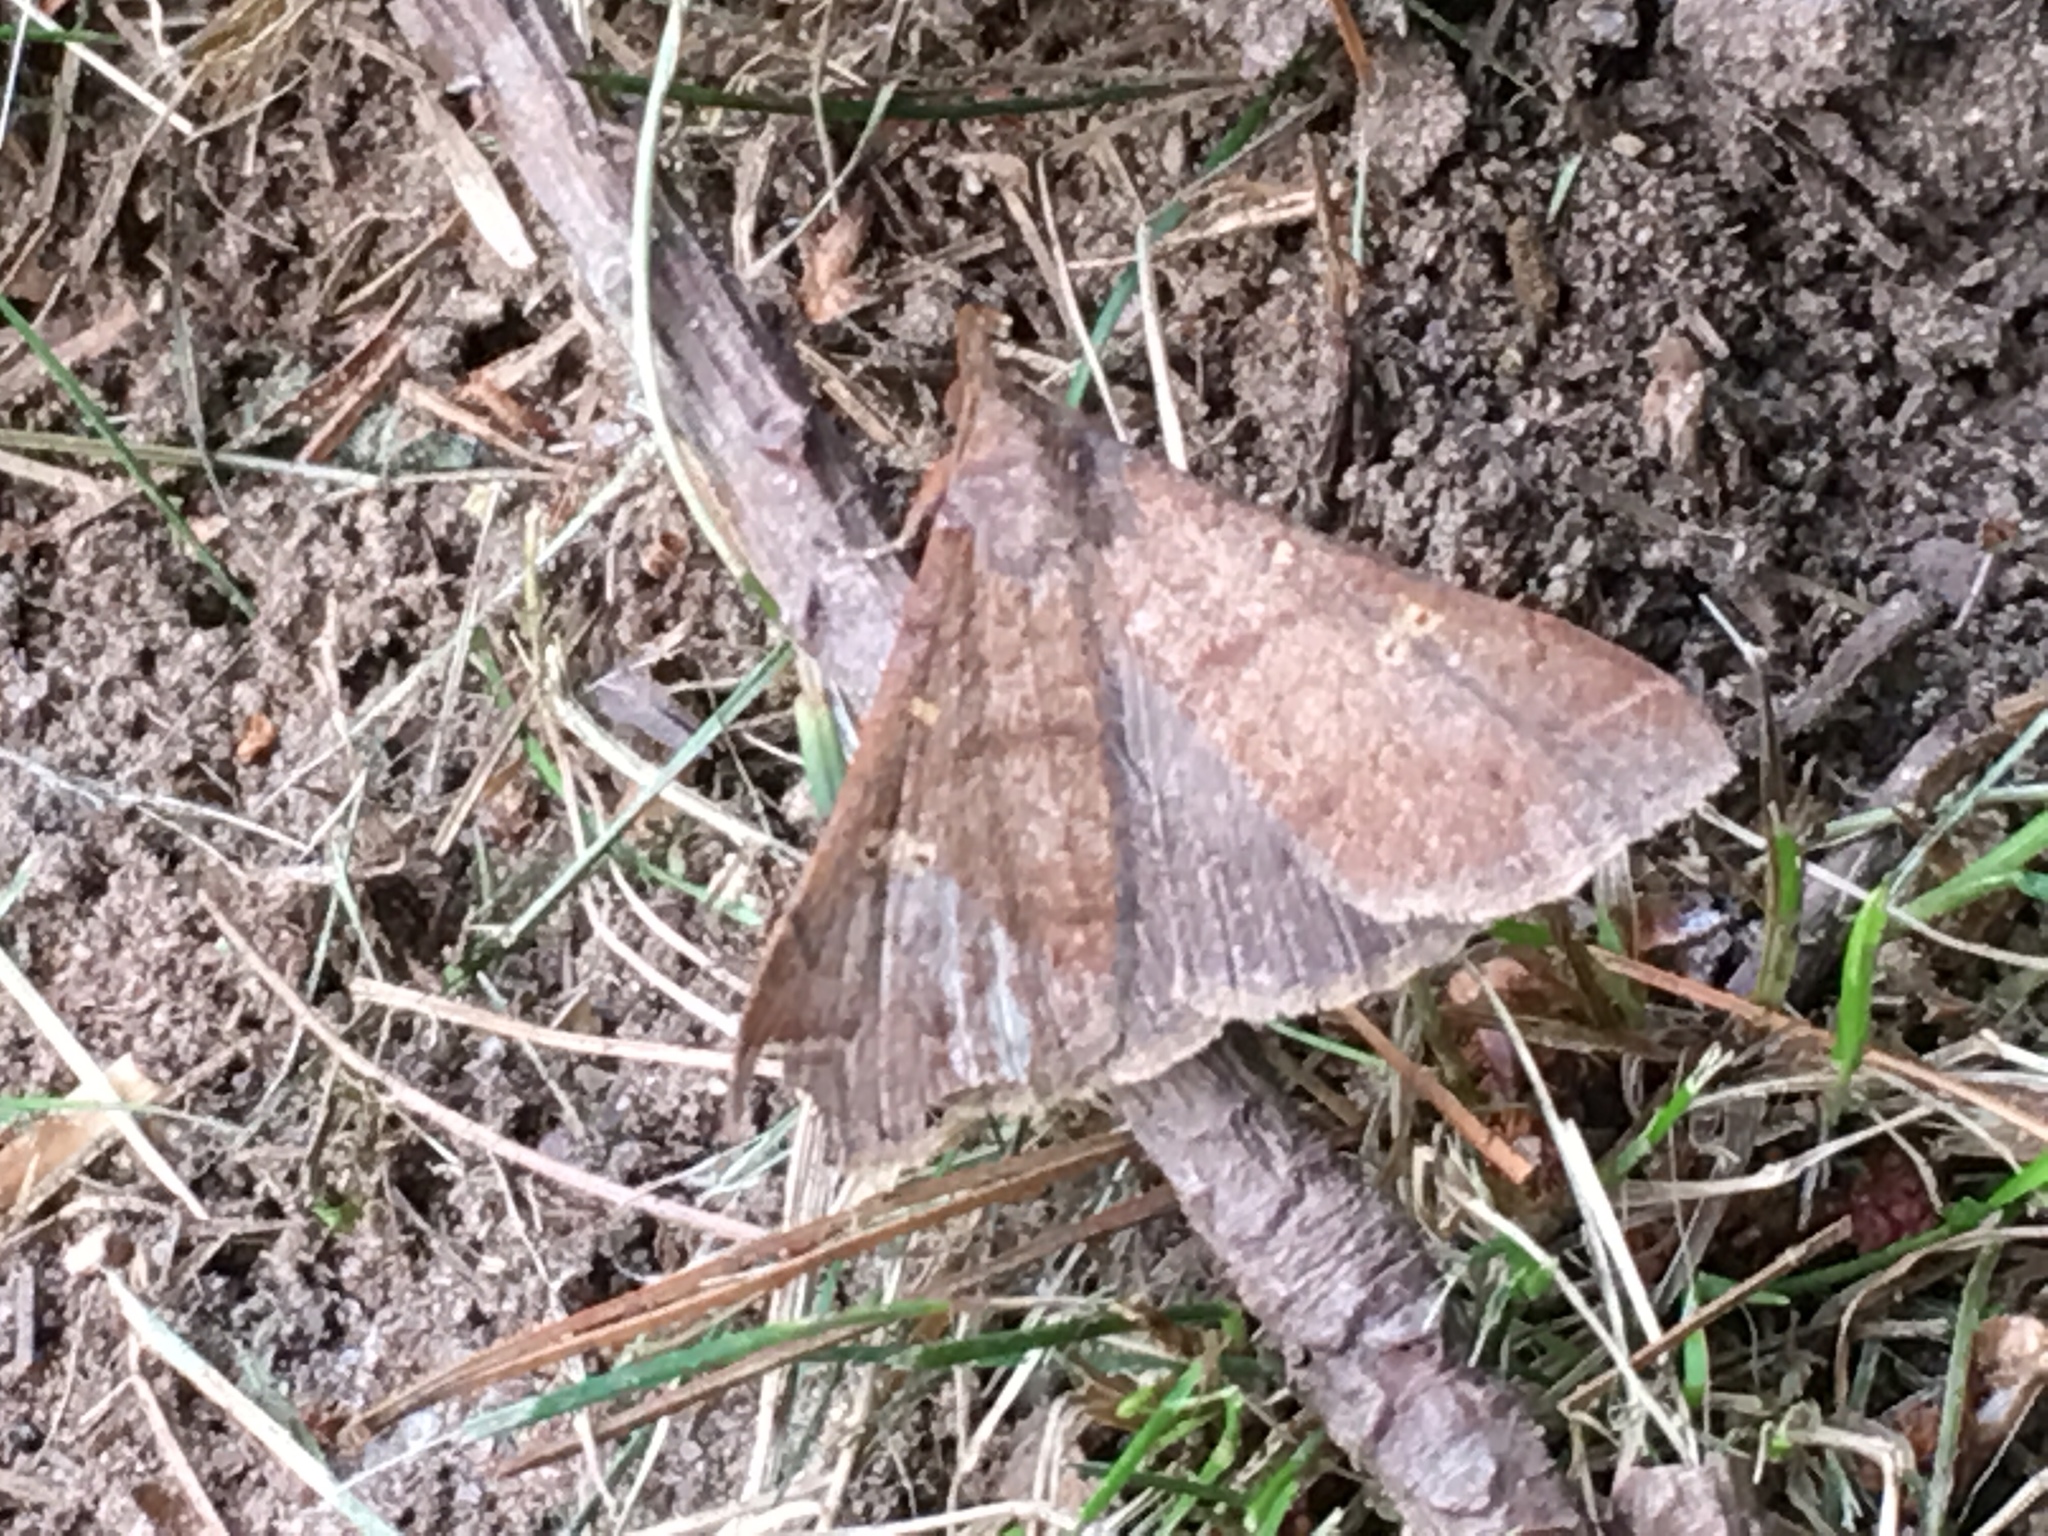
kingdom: Animalia
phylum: Arthropoda
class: Insecta
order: Lepidoptera
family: Erebidae
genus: Renia
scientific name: Renia discoloralis
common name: Discolored renia moth
